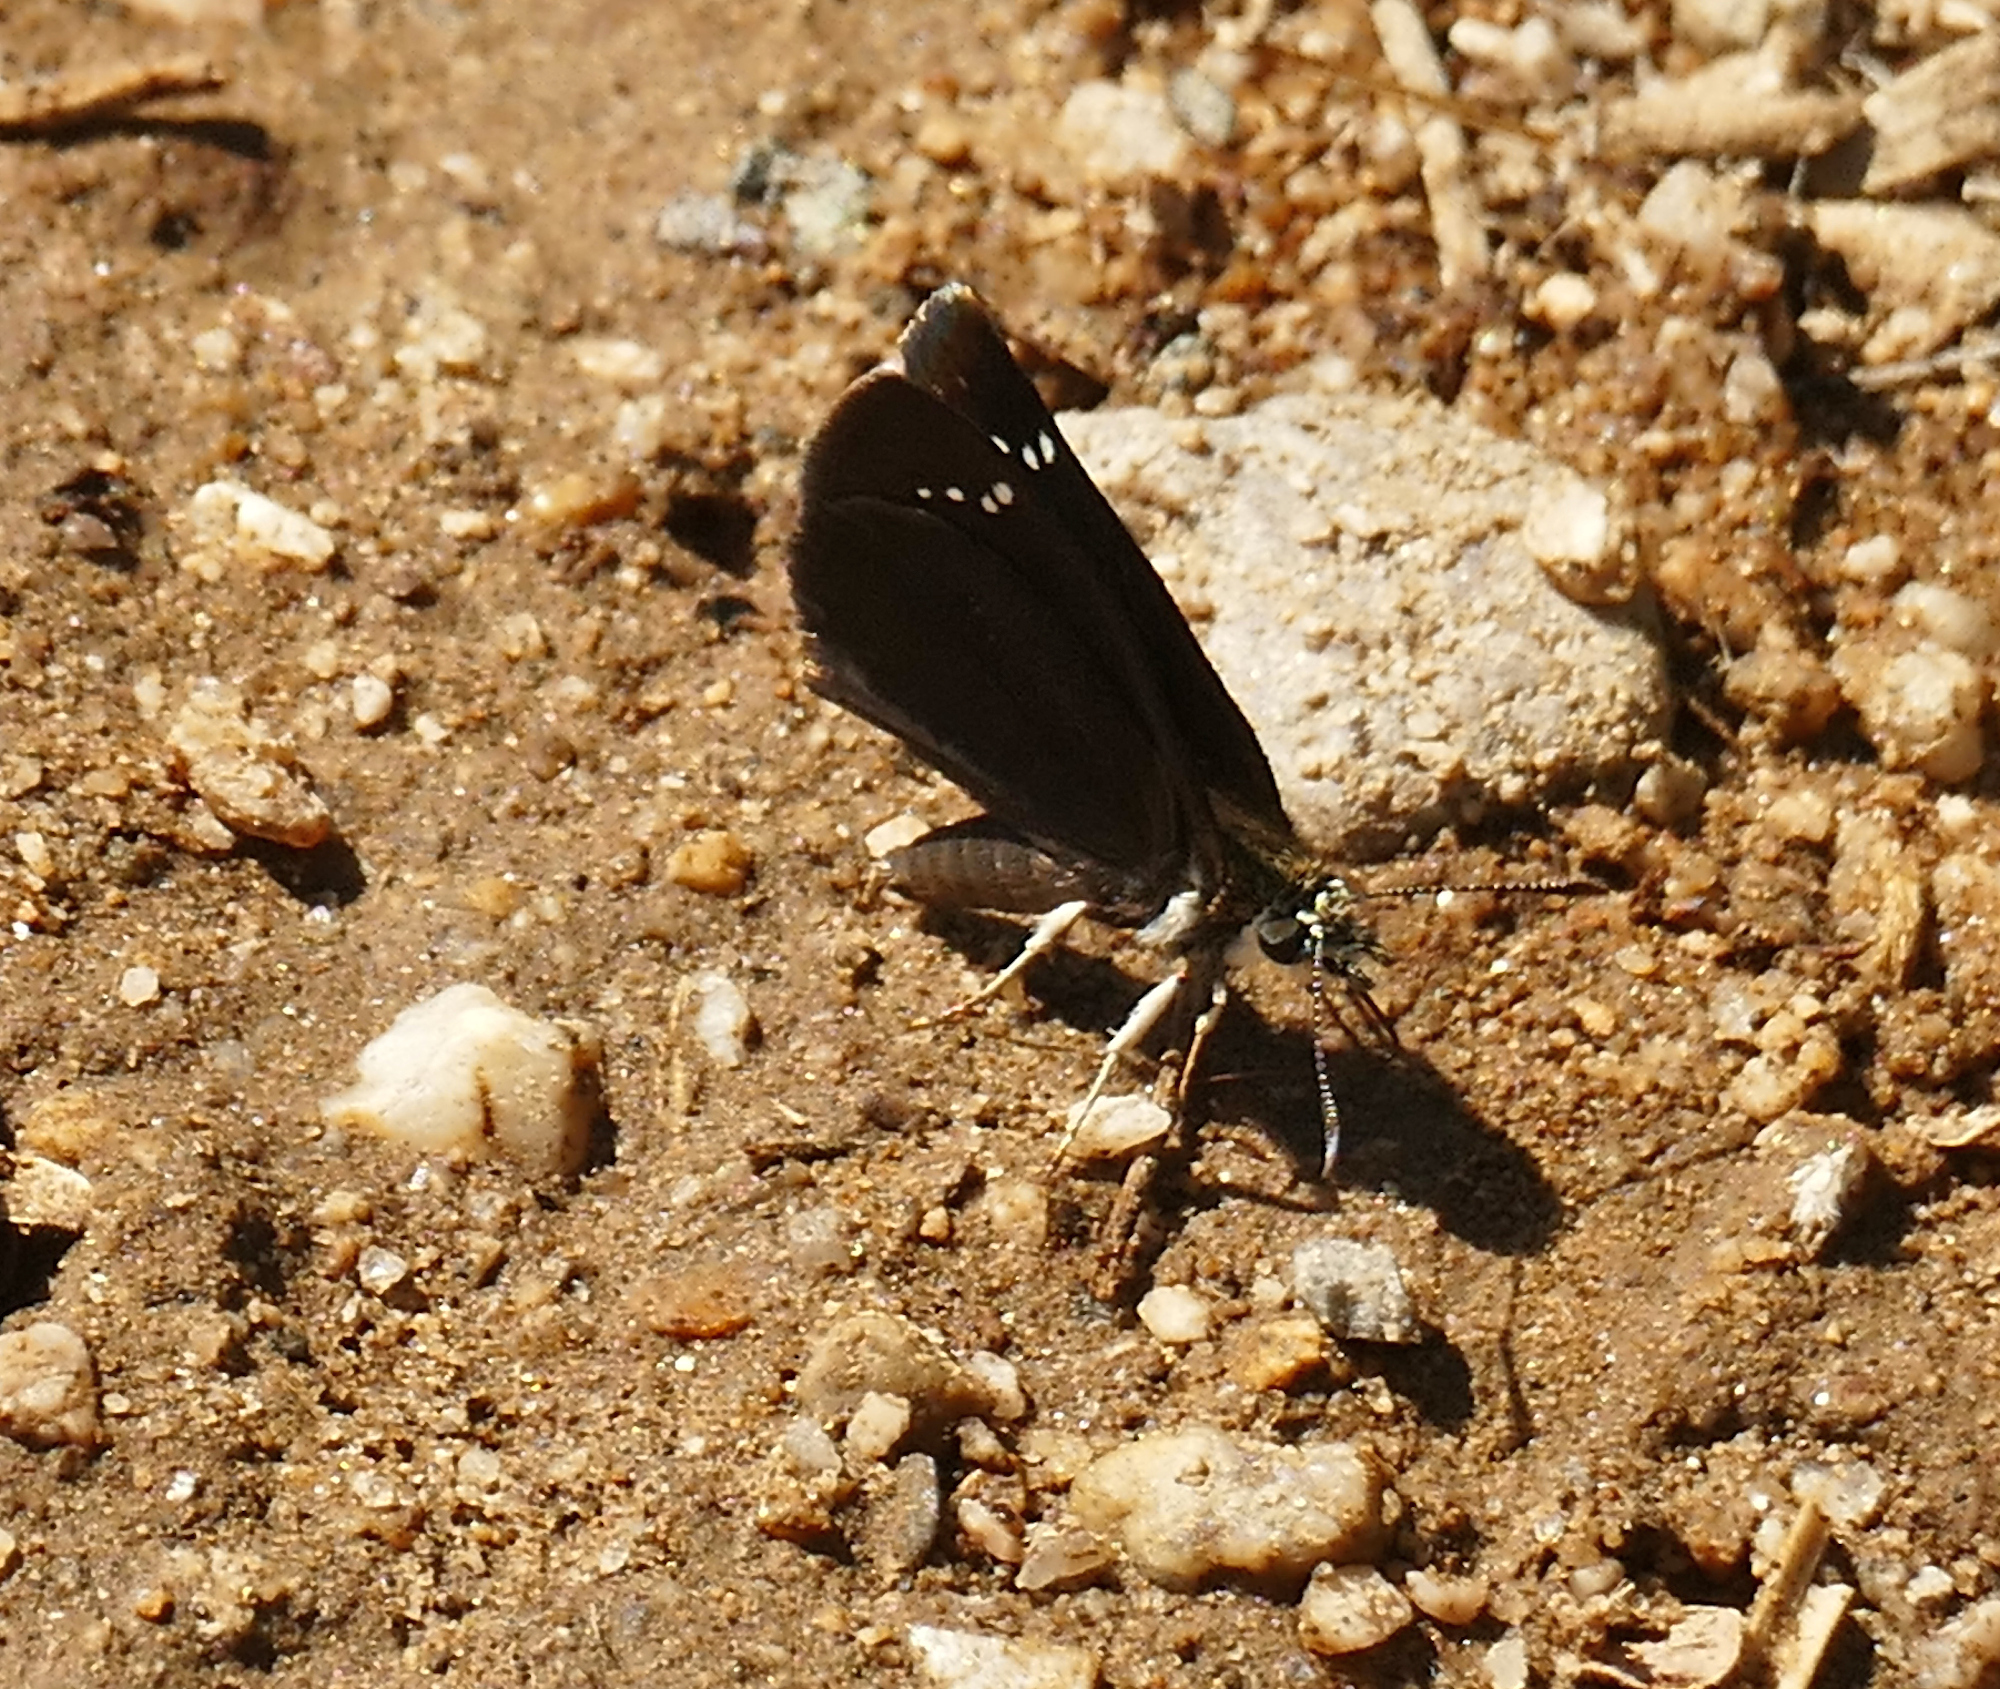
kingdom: Animalia
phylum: Arthropoda
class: Insecta
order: Lepidoptera
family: Hesperiidae
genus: Pholisora
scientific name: Pholisora catullus
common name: Common sootywing
